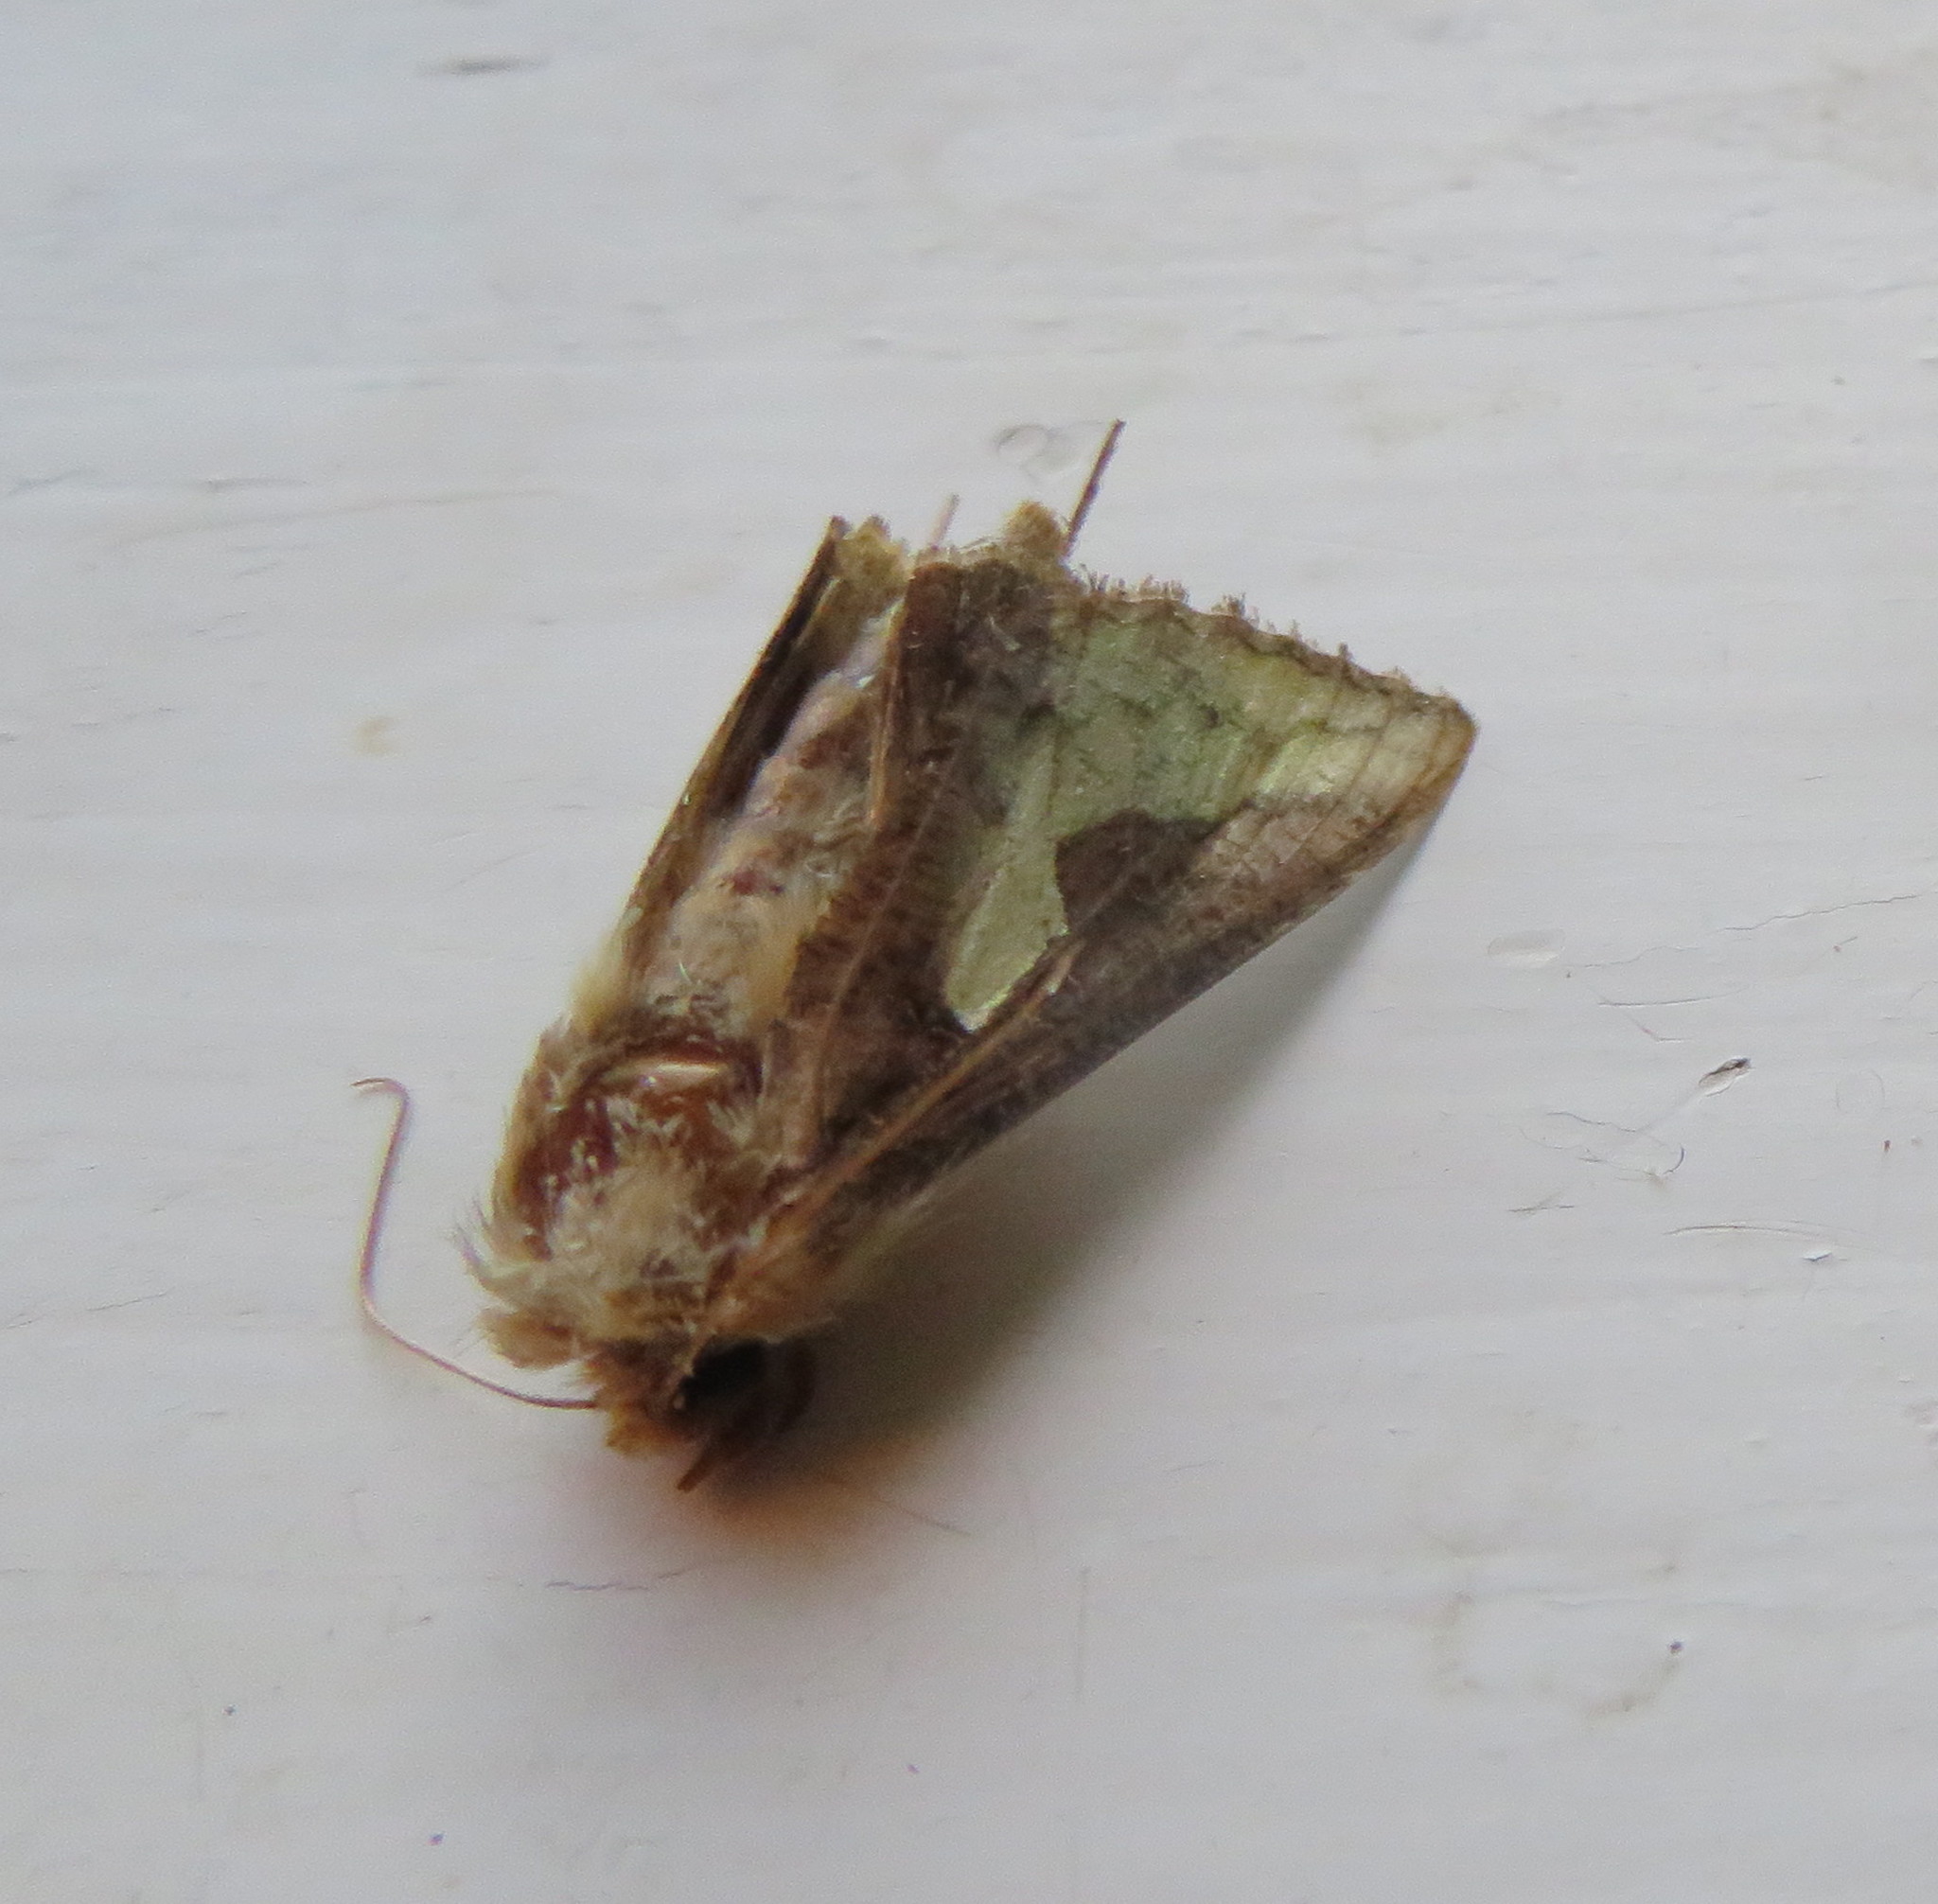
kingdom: Animalia
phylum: Arthropoda
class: Insecta
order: Lepidoptera
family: Noctuidae
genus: Thysanoplusia
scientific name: Thysanoplusia orichalcea
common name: Slender burnished brass, golden plusia
